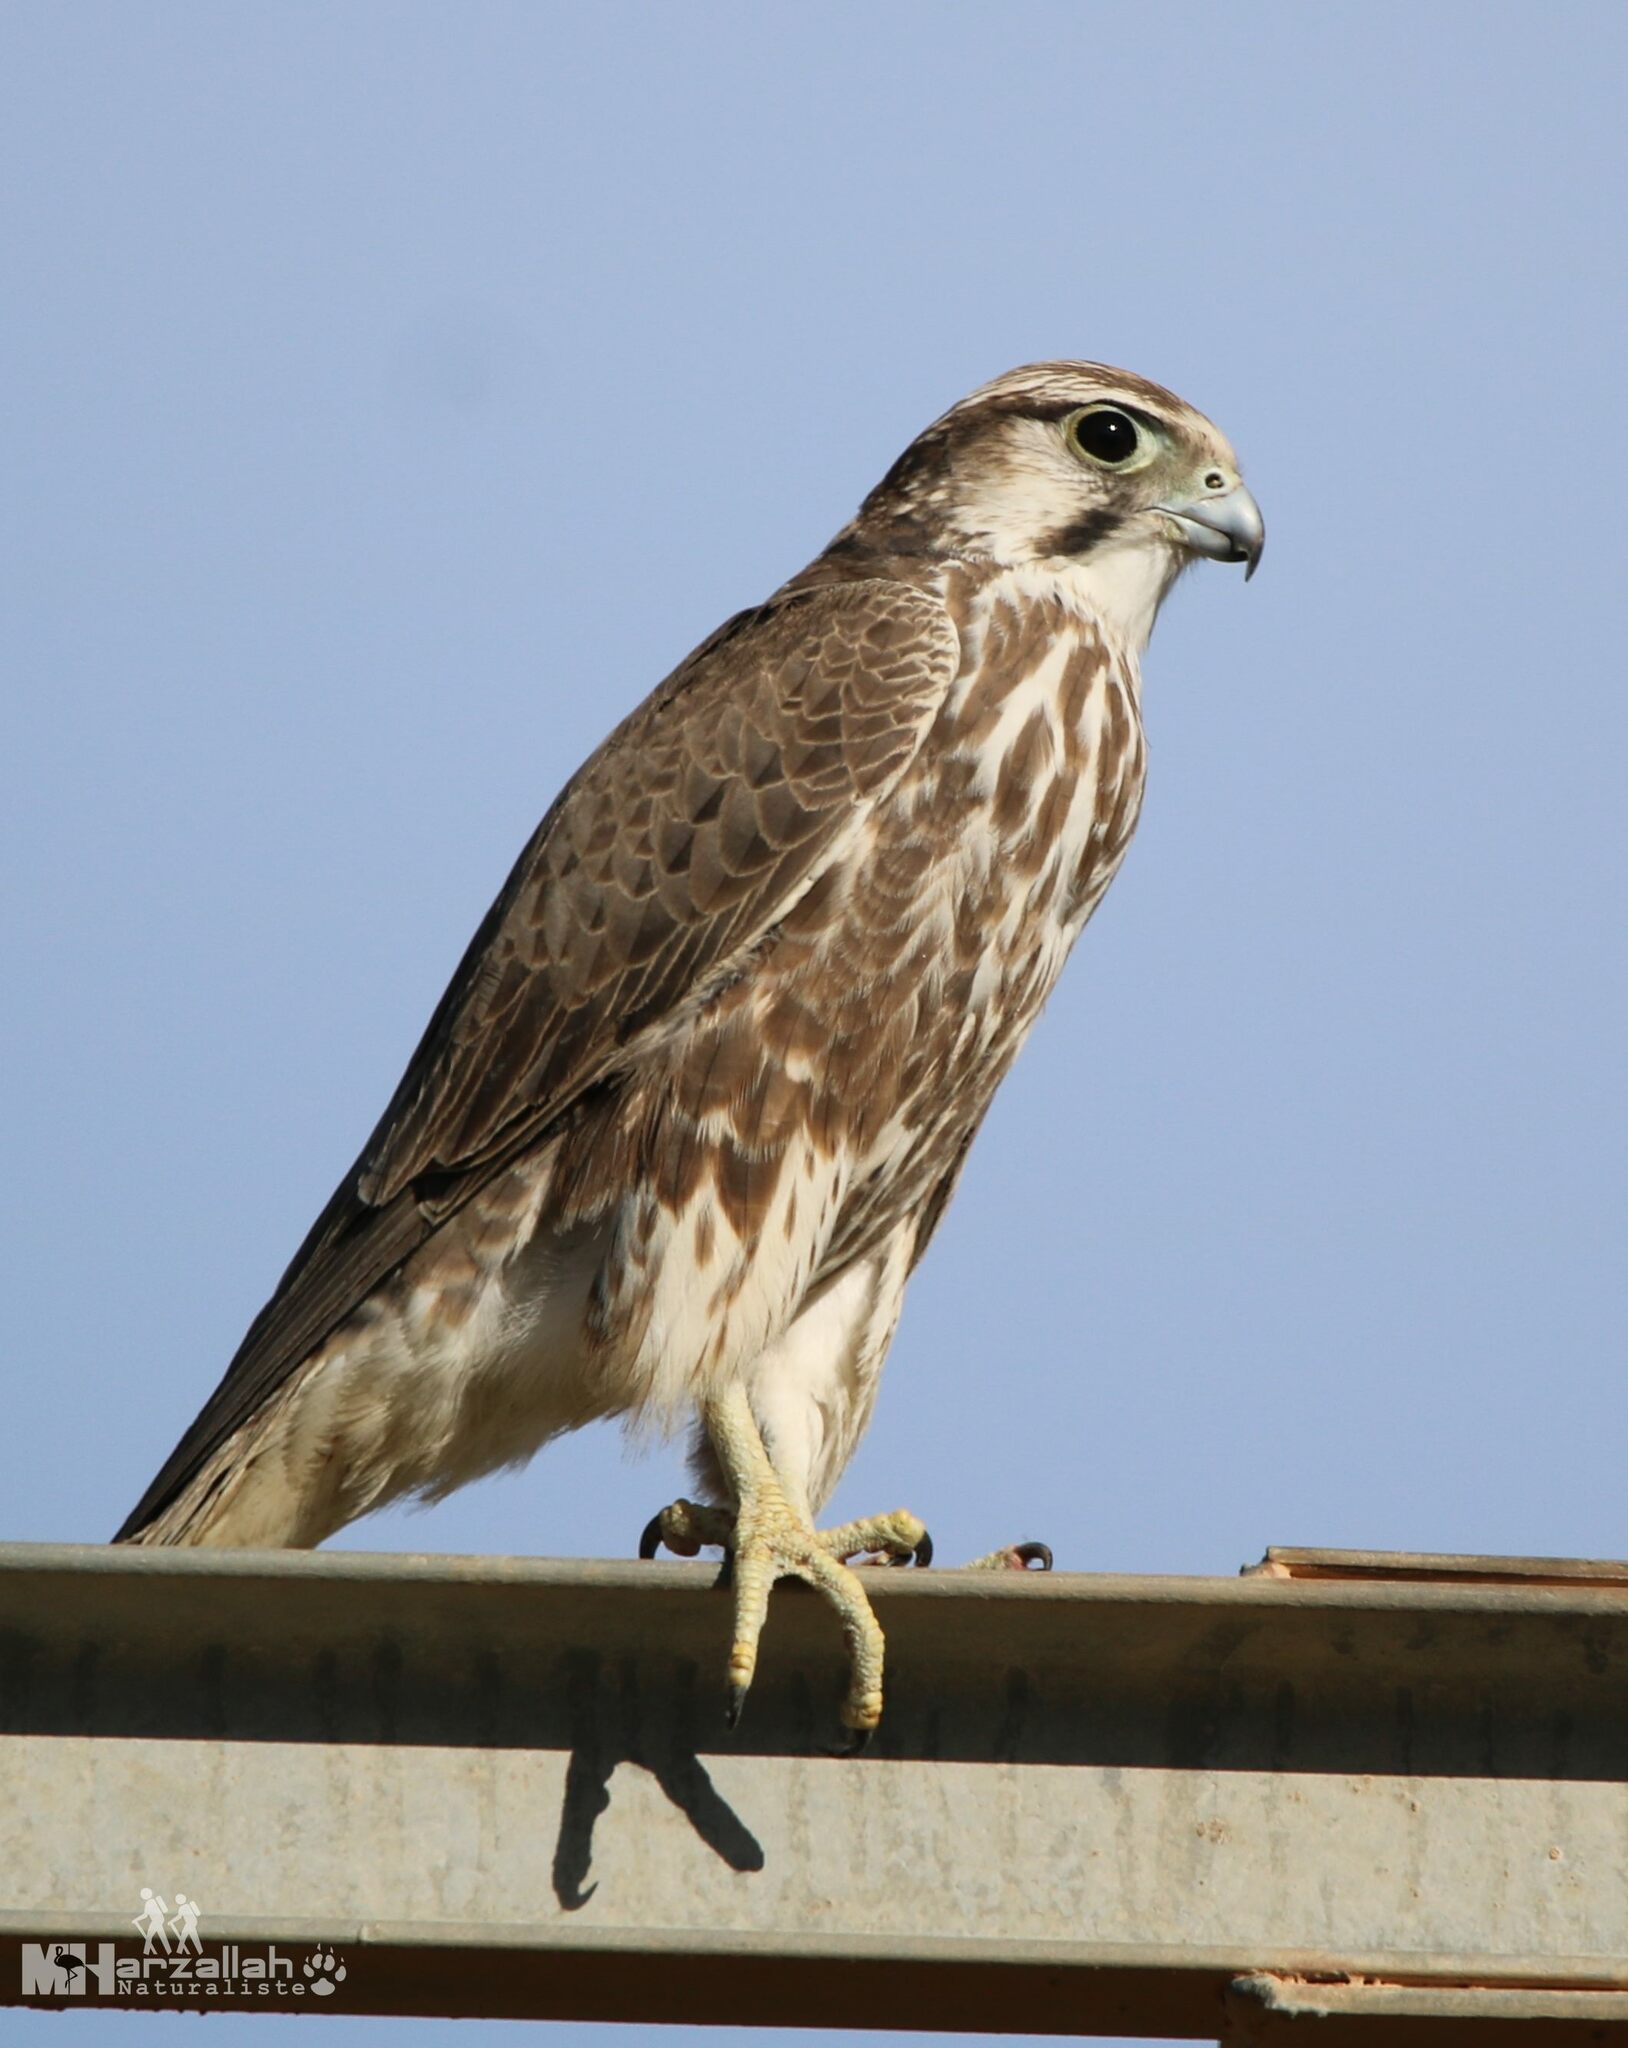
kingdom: Animalia
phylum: Chordata
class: Aves
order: Falconiformes
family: Falconidae
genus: Falco
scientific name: Falco biarmicus
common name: Lanner falcon
